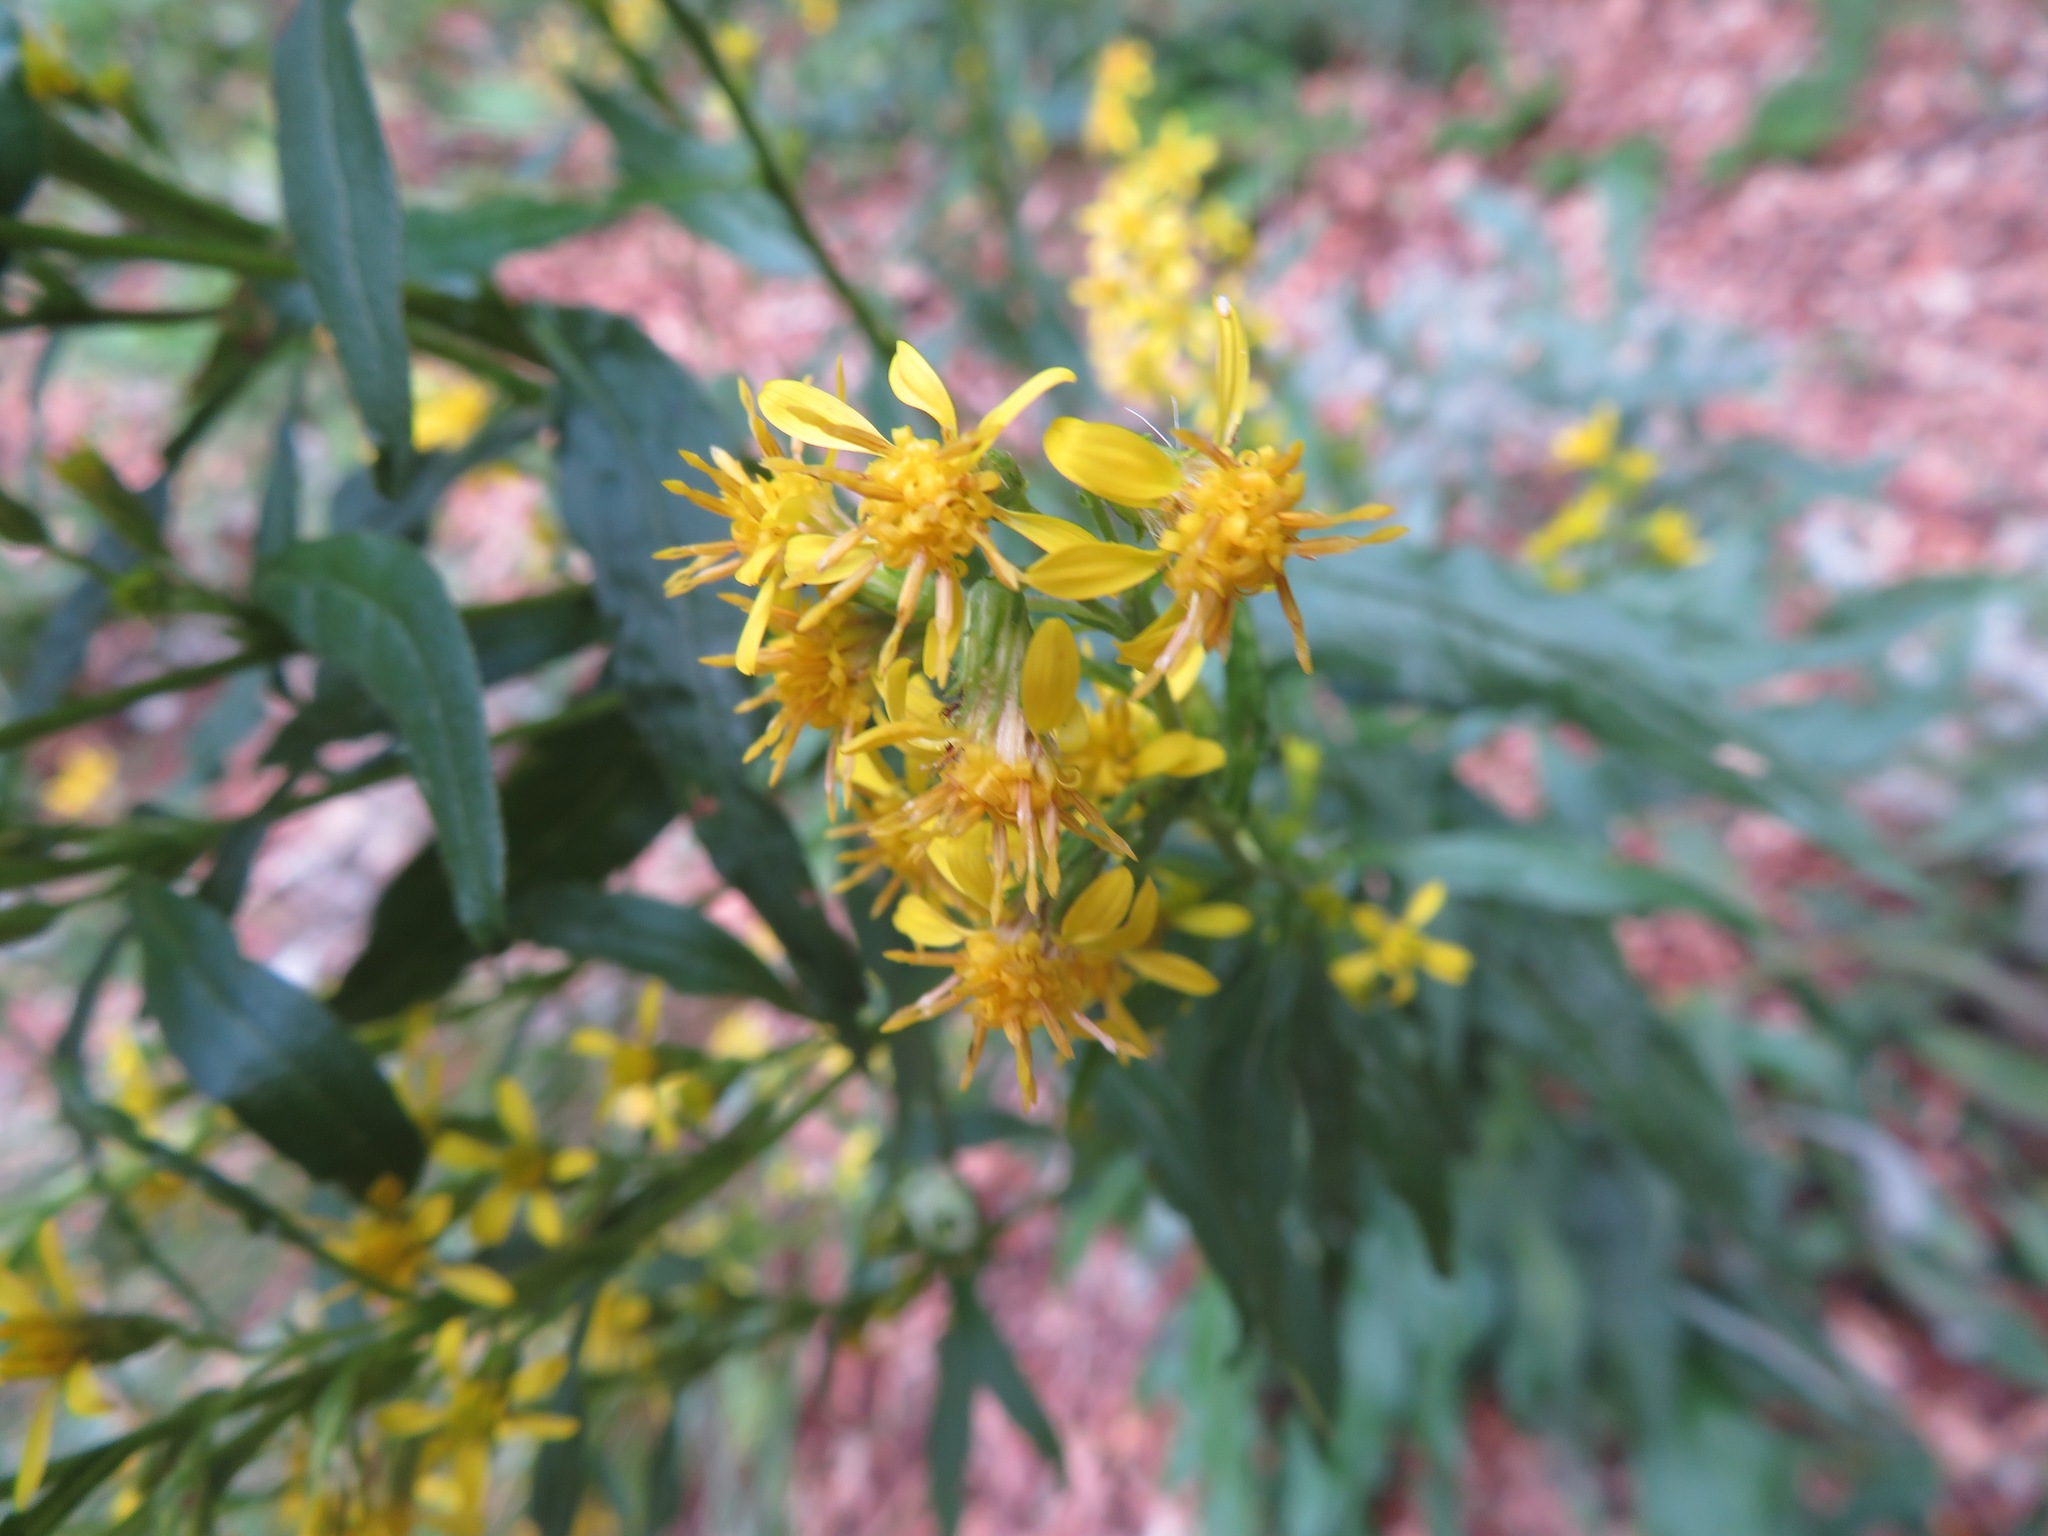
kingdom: Plantae
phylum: Tracheophyta
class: Magnoliopsida
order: Asterales
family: Asteraceae
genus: Solidago
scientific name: Solidago virgaurea
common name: Goldenrod
